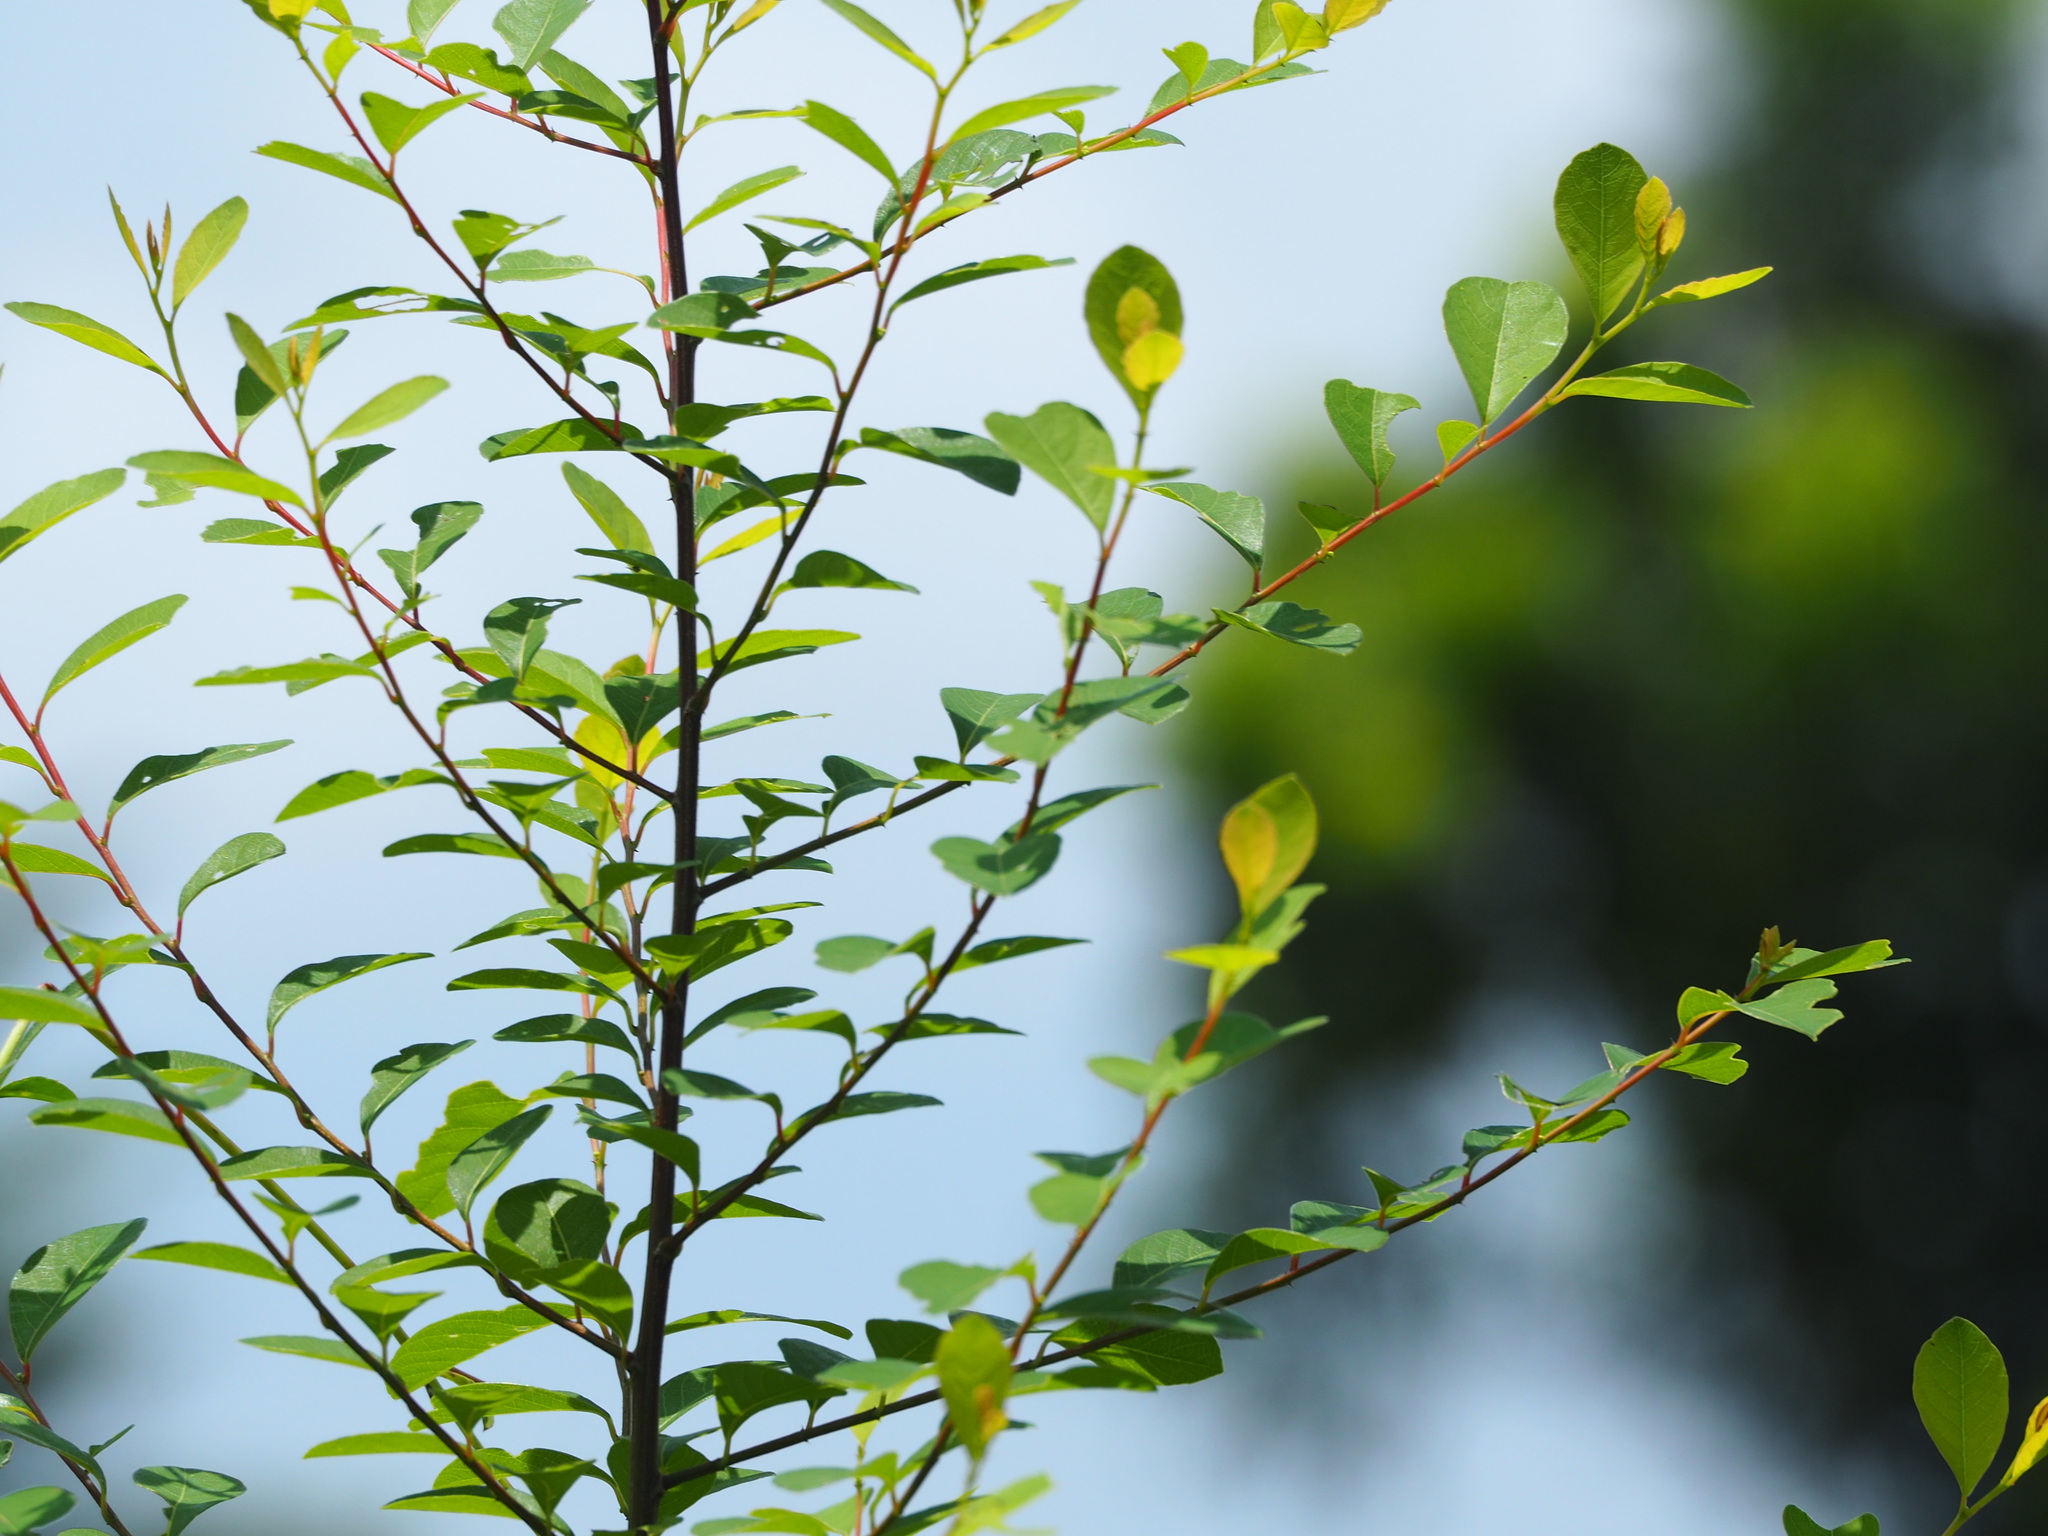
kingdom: Plantae
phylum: Tracheophyta
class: Magnoliopsida
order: Malpighiales
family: Phyllanthaceae
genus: Flueggea
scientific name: Flueggea virosa
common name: Common bushweed
